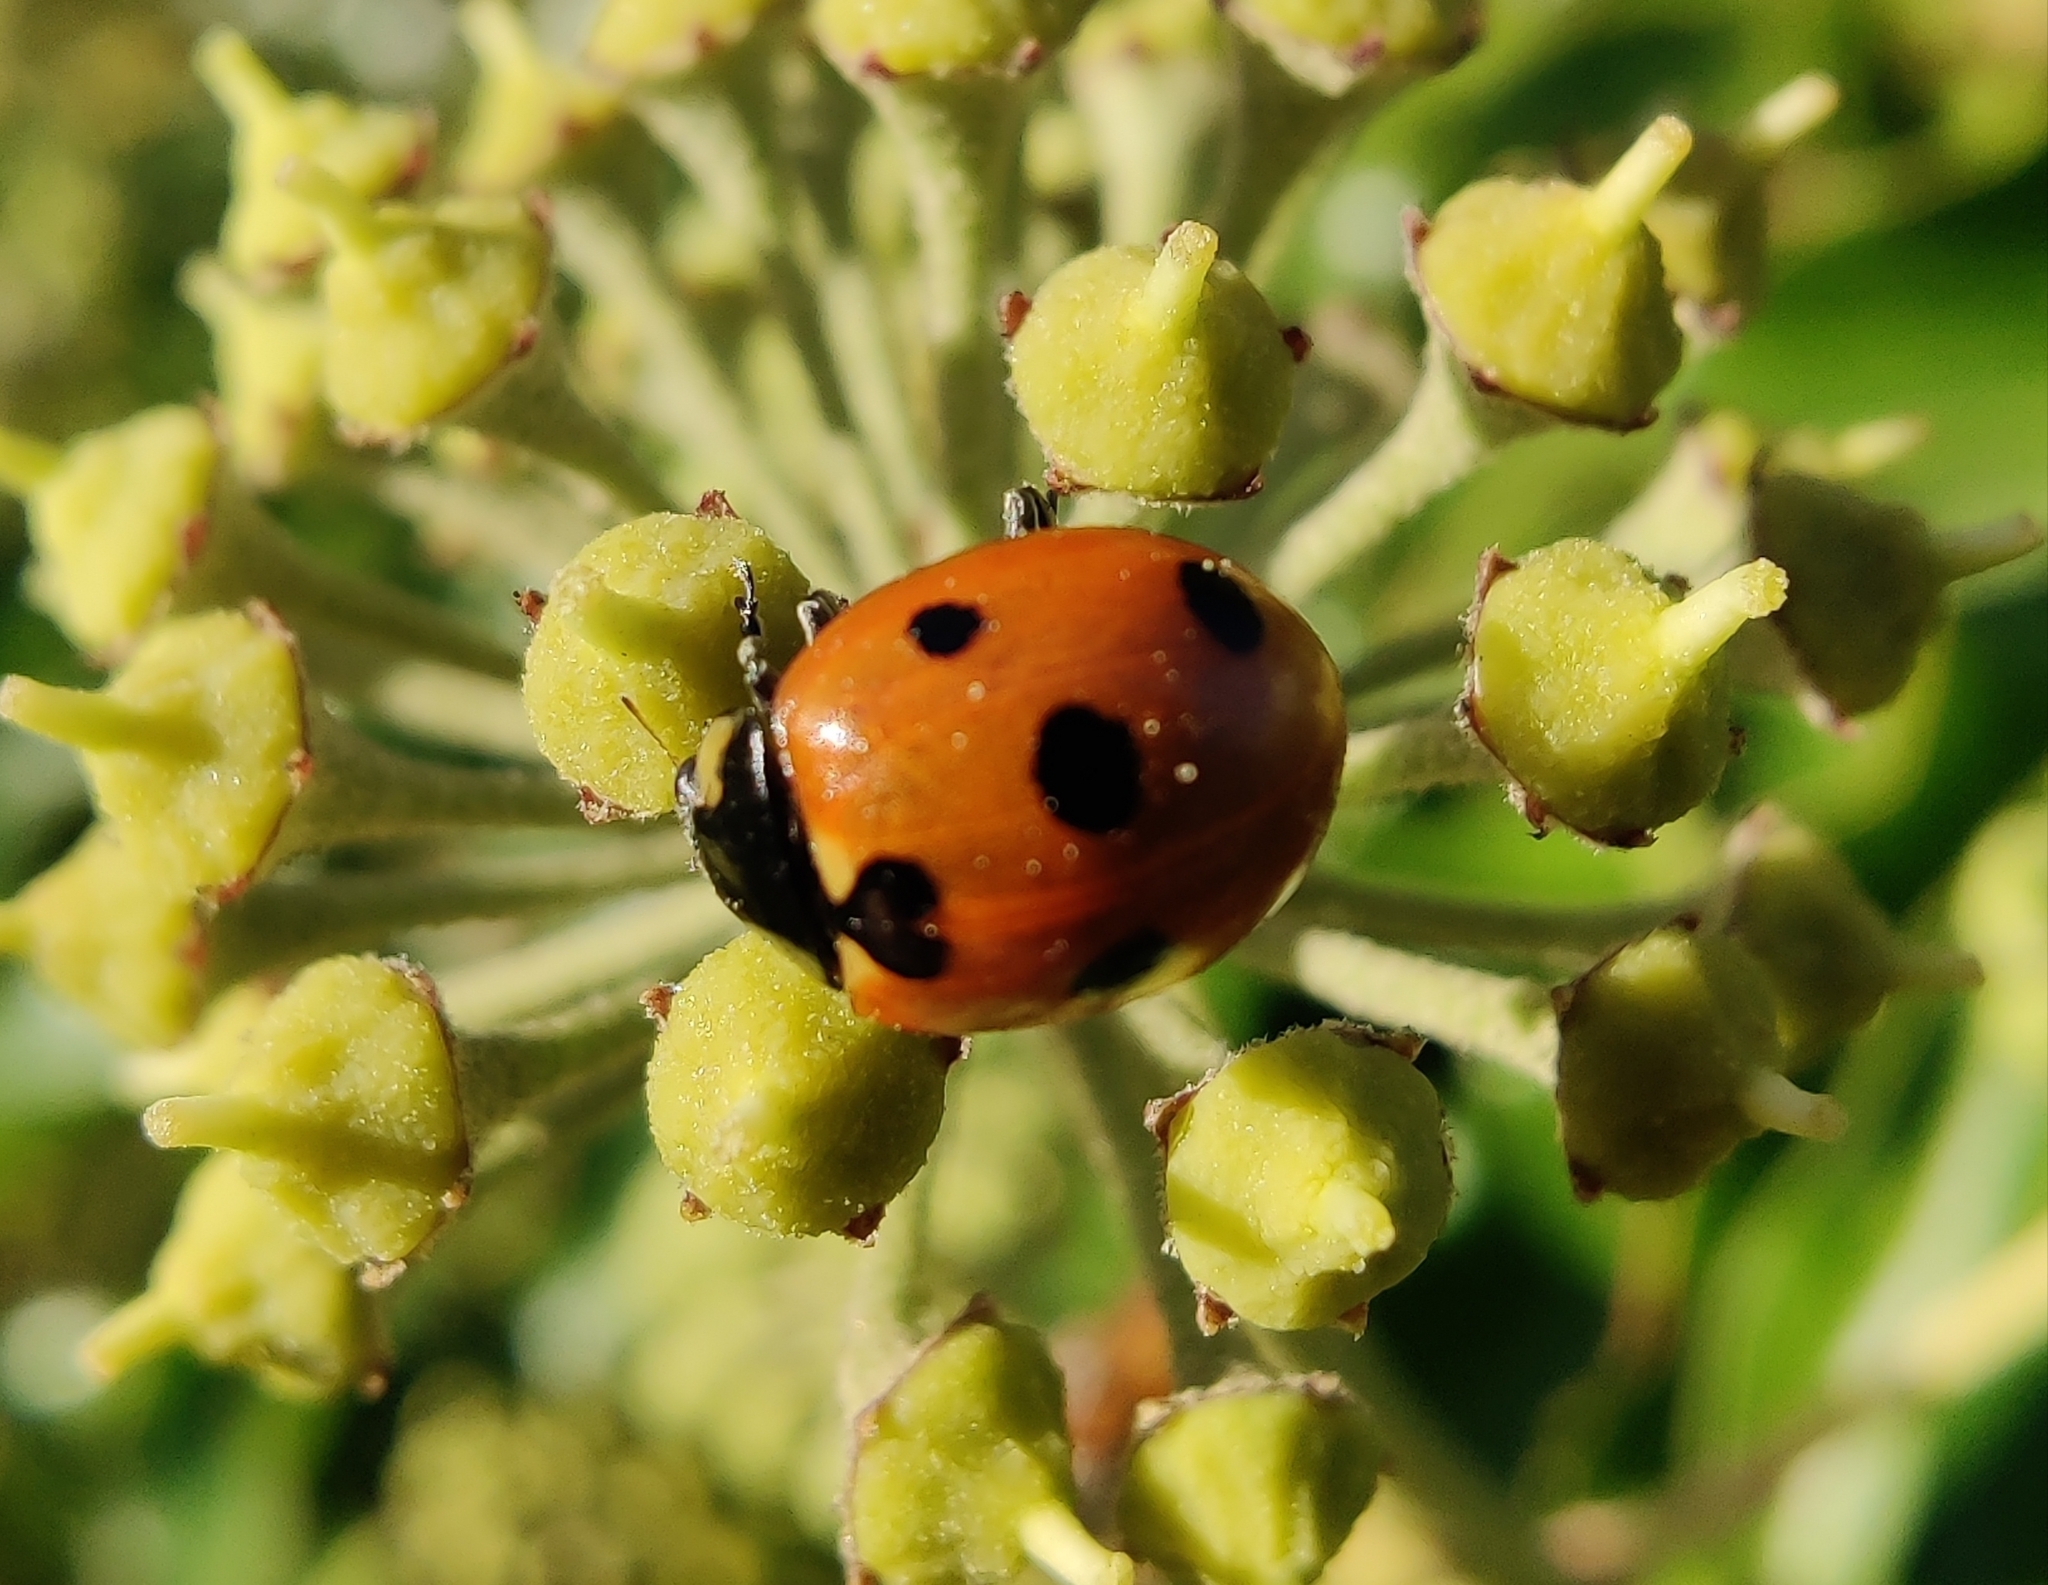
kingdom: Animalia
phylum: Arthropoda
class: Insecta
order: Coleoptera
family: Coccinellidae
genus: Coccinella
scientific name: Coccinella septempunctata
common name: Sevenspotted lady beetle
